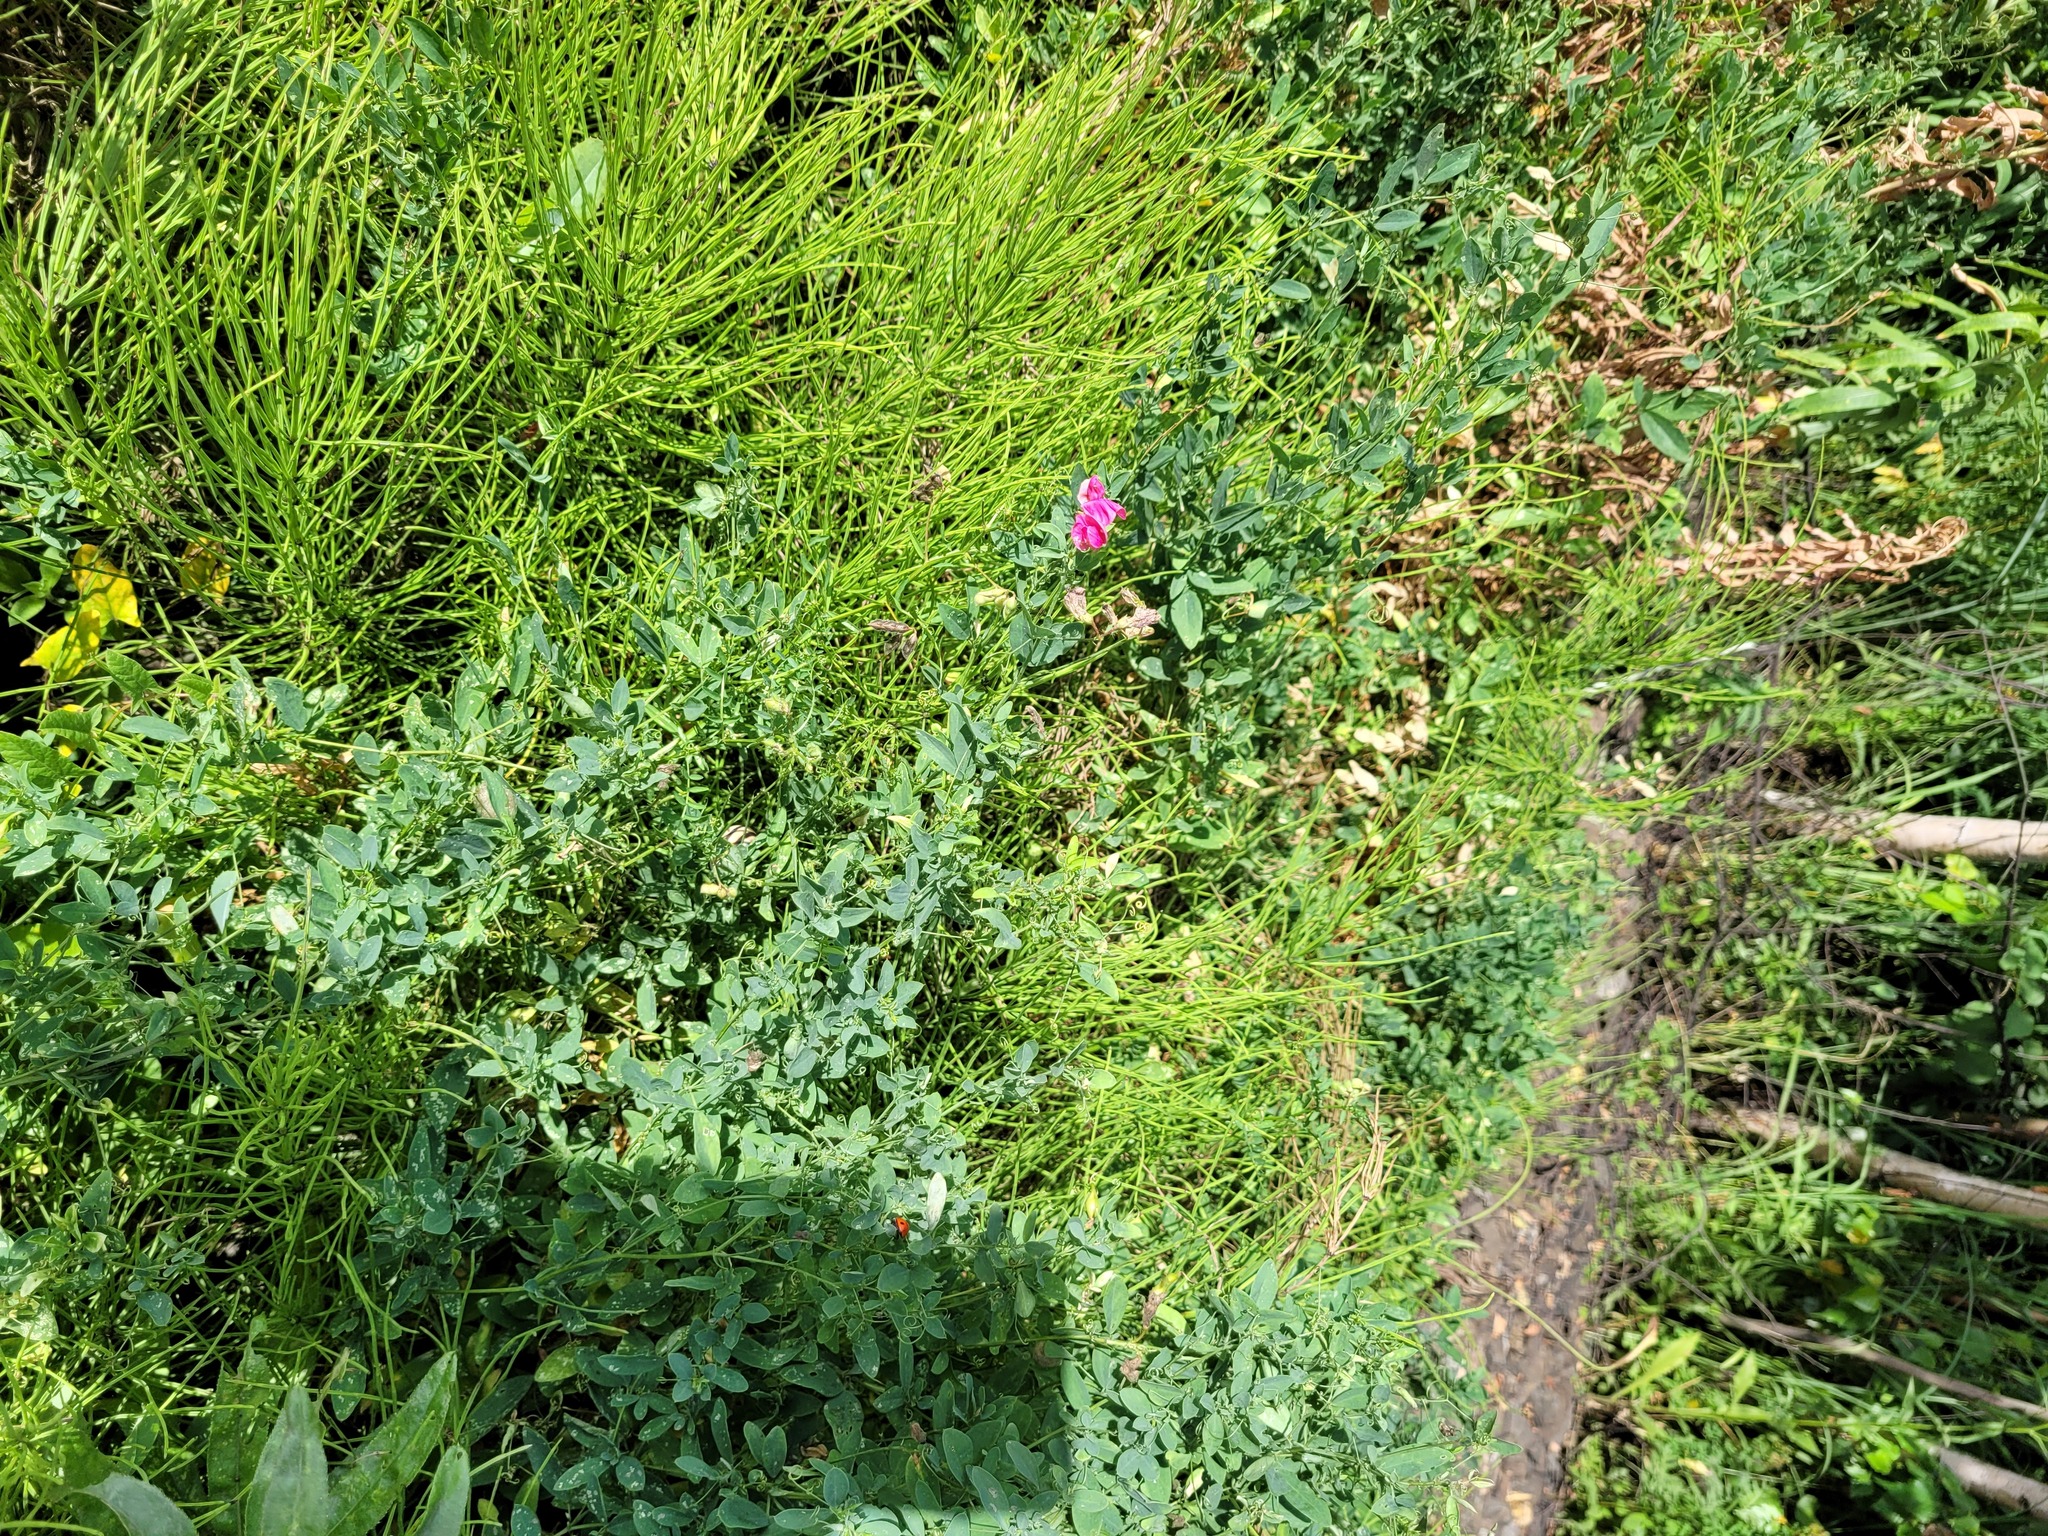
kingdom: Plantae
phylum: Tracheophyta
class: Magnoliopsida
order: Fabales
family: Fabaceae
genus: Lathyrus
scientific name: Lathyrus tuberosus
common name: Tuberous pea
